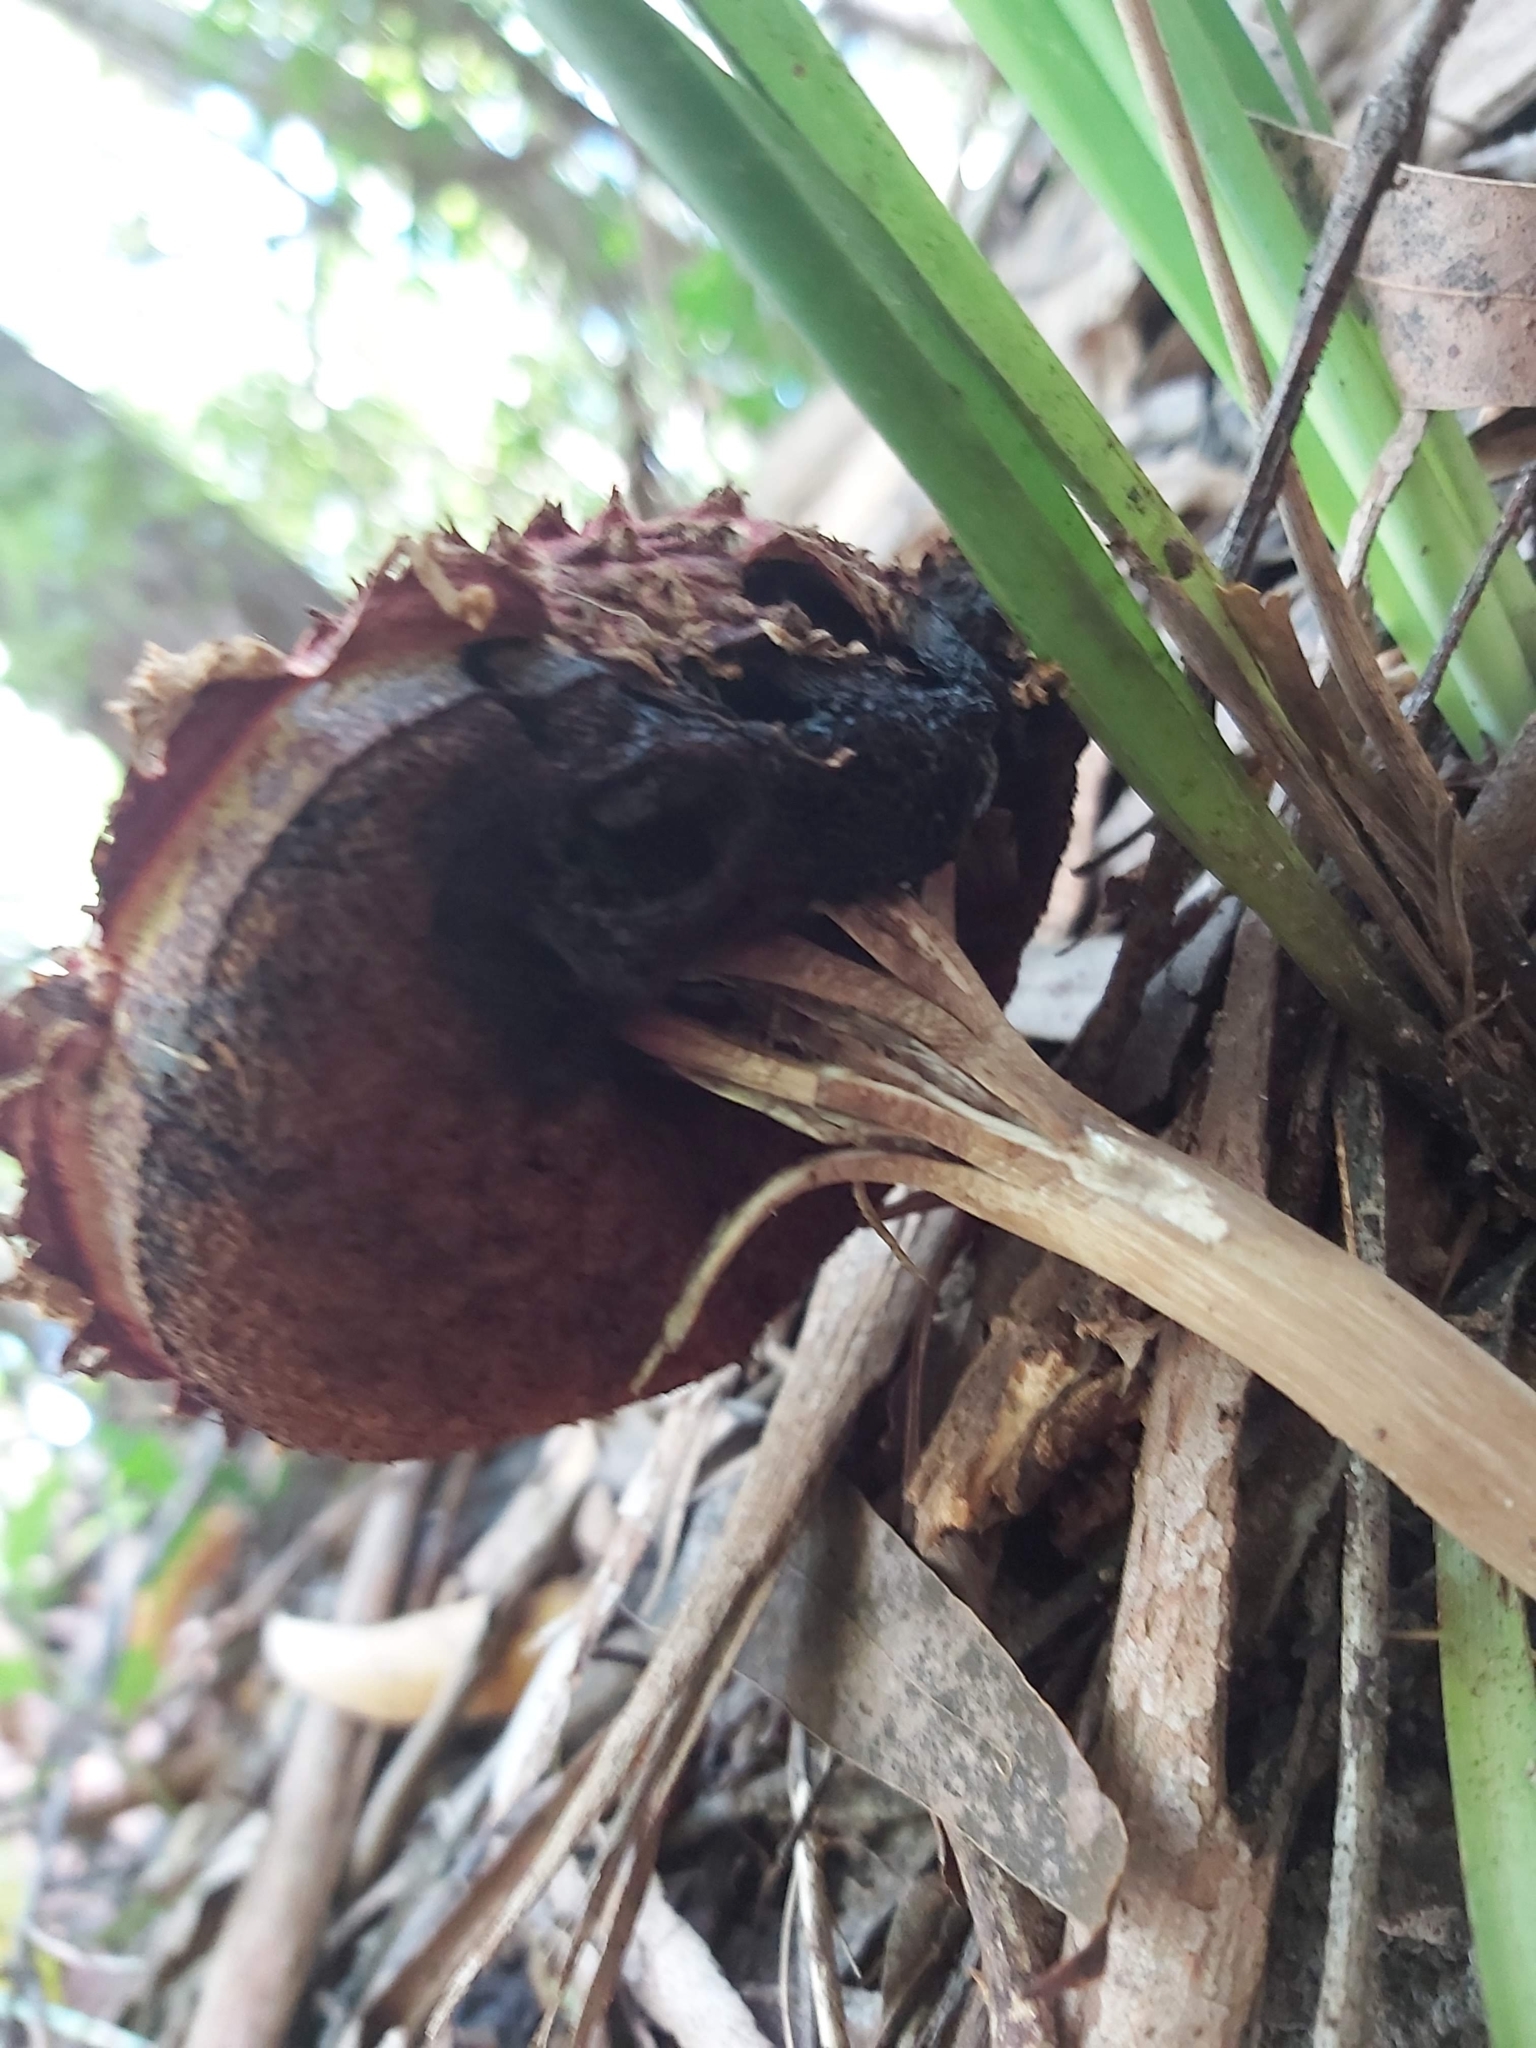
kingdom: Fungi
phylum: Basidiomycota
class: Agaricomycetes
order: Boletales
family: Boletaceae
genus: Boletellus
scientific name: Boletellus emodensis
